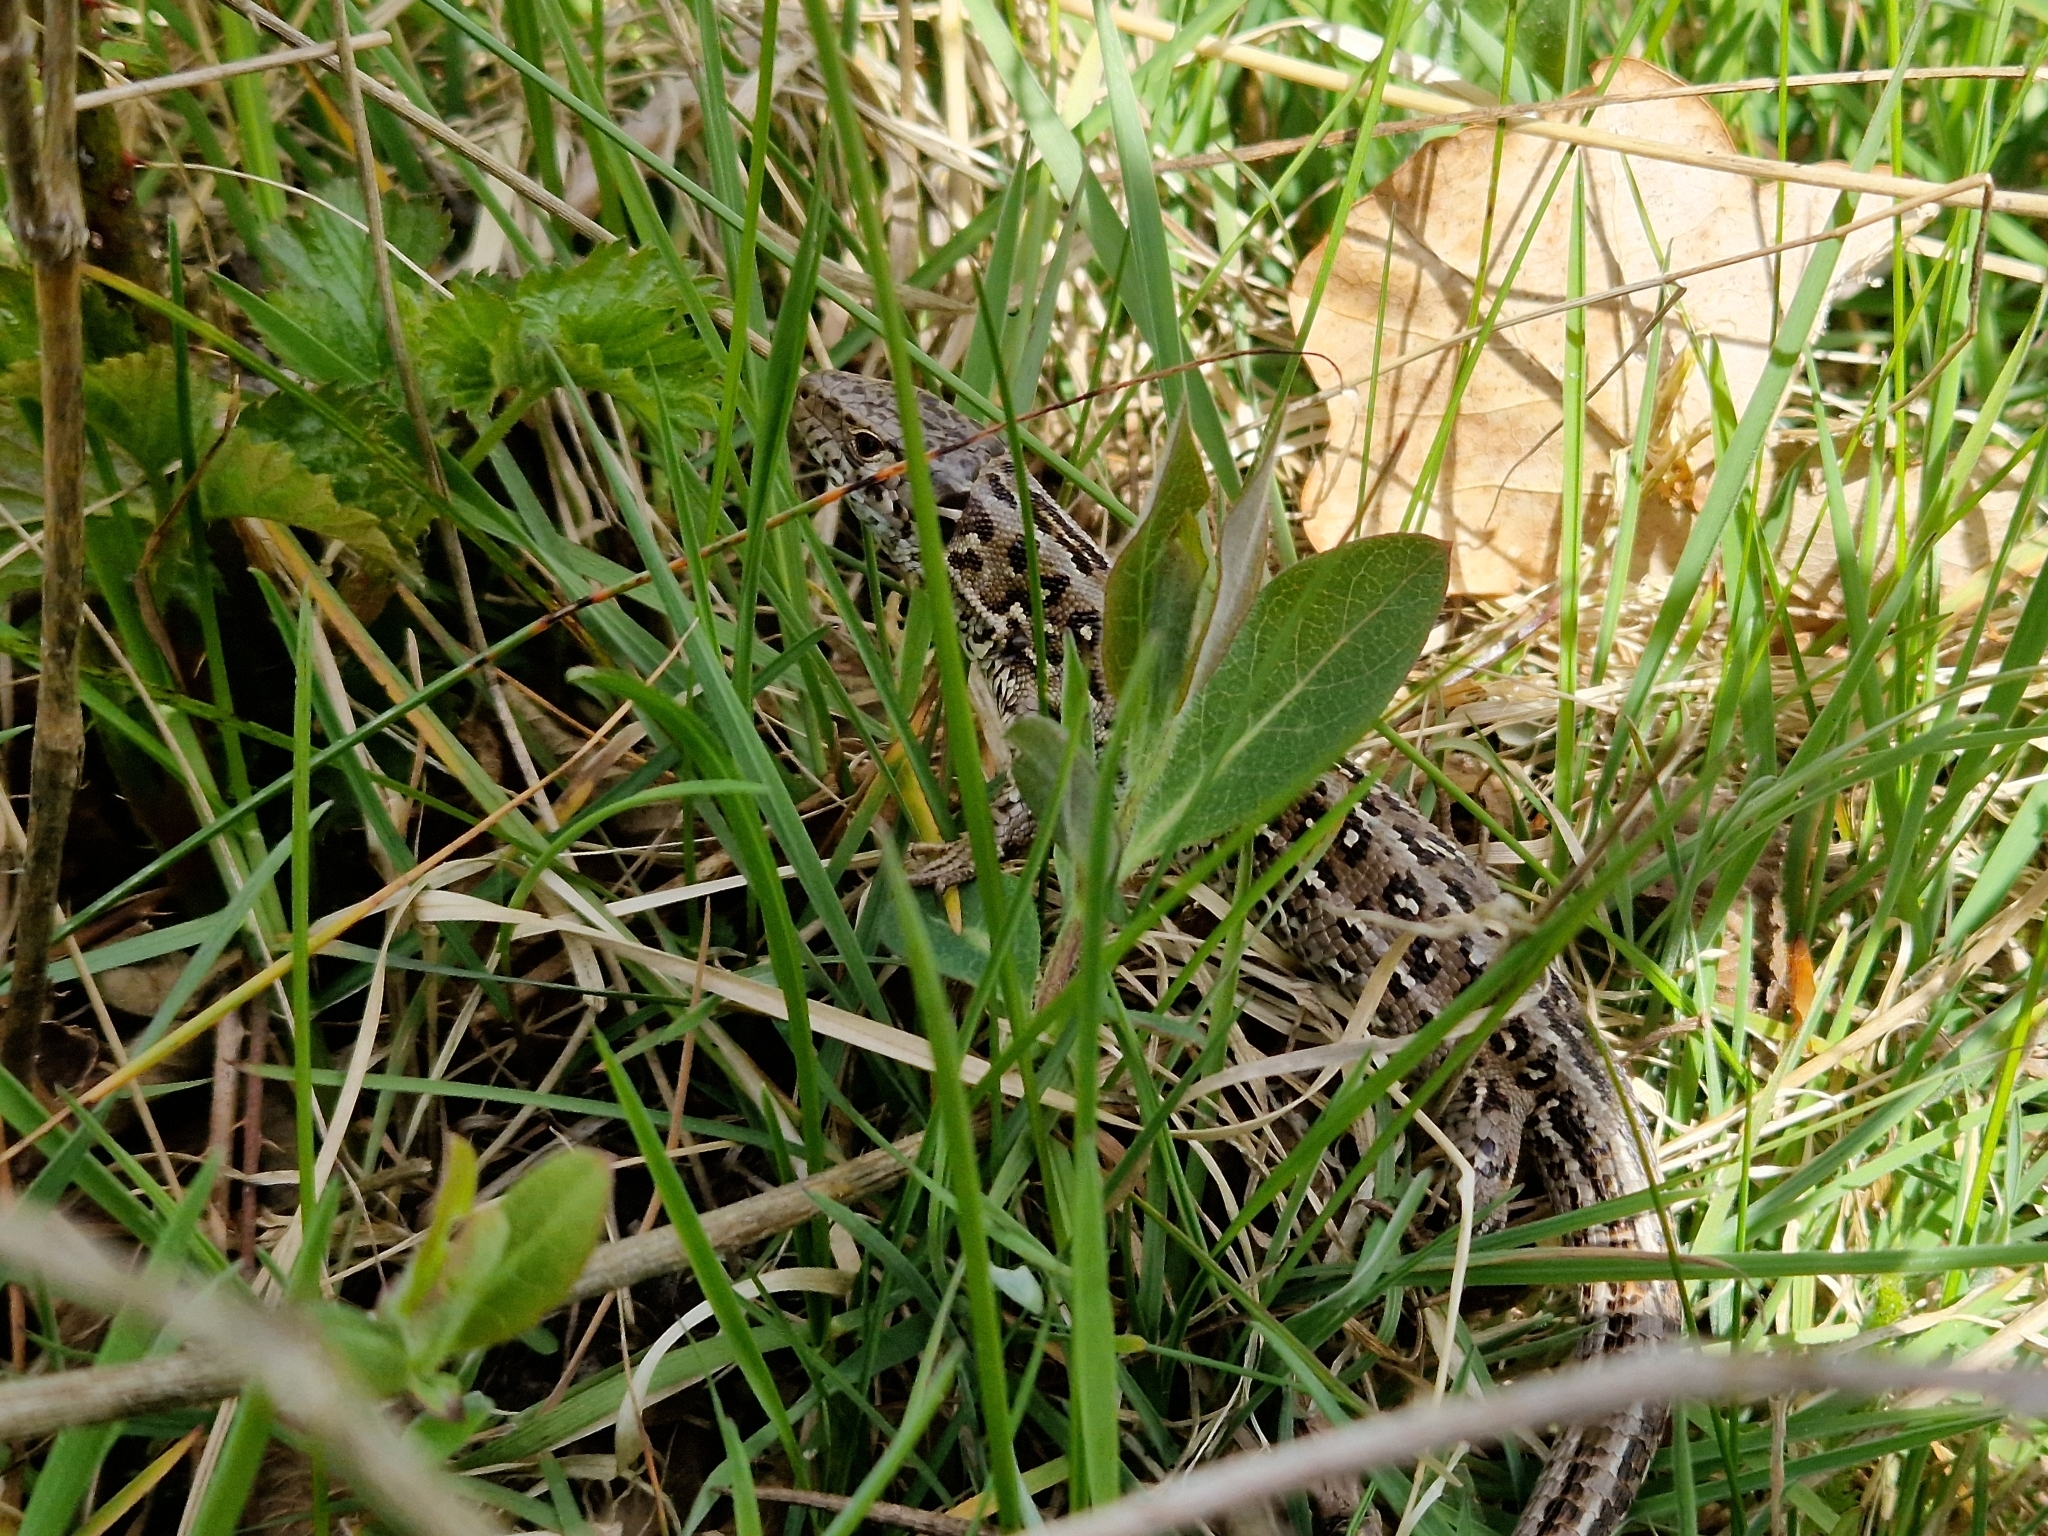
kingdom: Animalia
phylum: Chordata
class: Squamata
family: Lacertidae
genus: Lacerta
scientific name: Lacerta agilis
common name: Sand lizard
